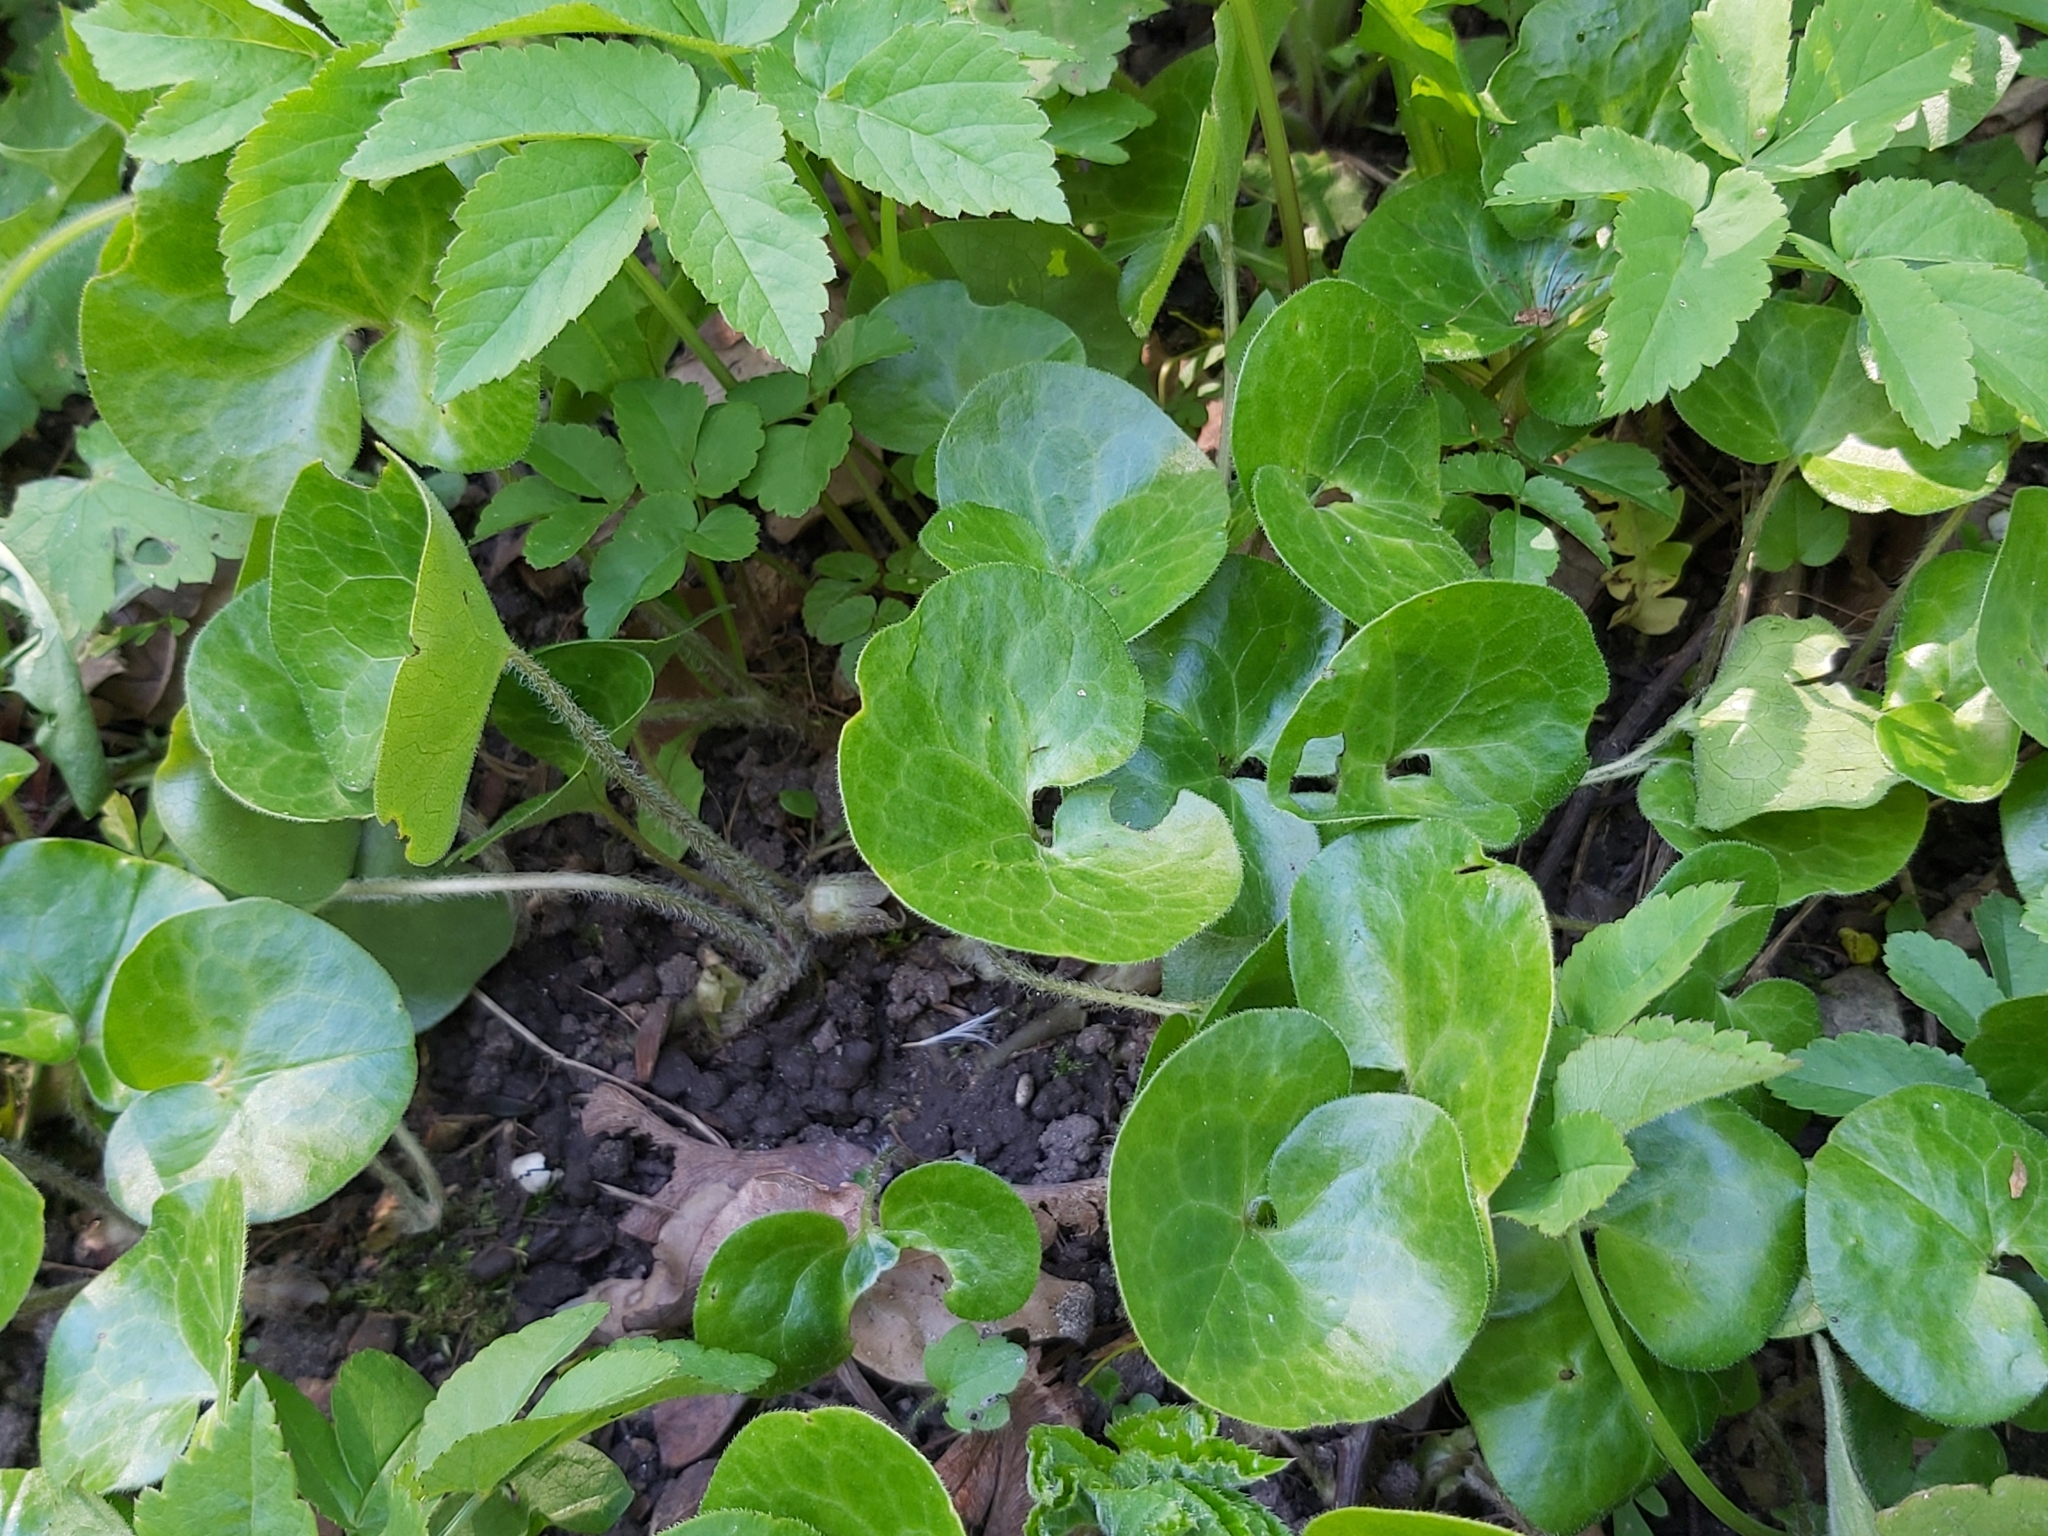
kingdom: Plantae
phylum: Tracheophyta
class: Magnoliopsida
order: Piperales
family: Aristolochiaceae
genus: Asarum
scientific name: Asarum europaeum
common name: Asarabacca
